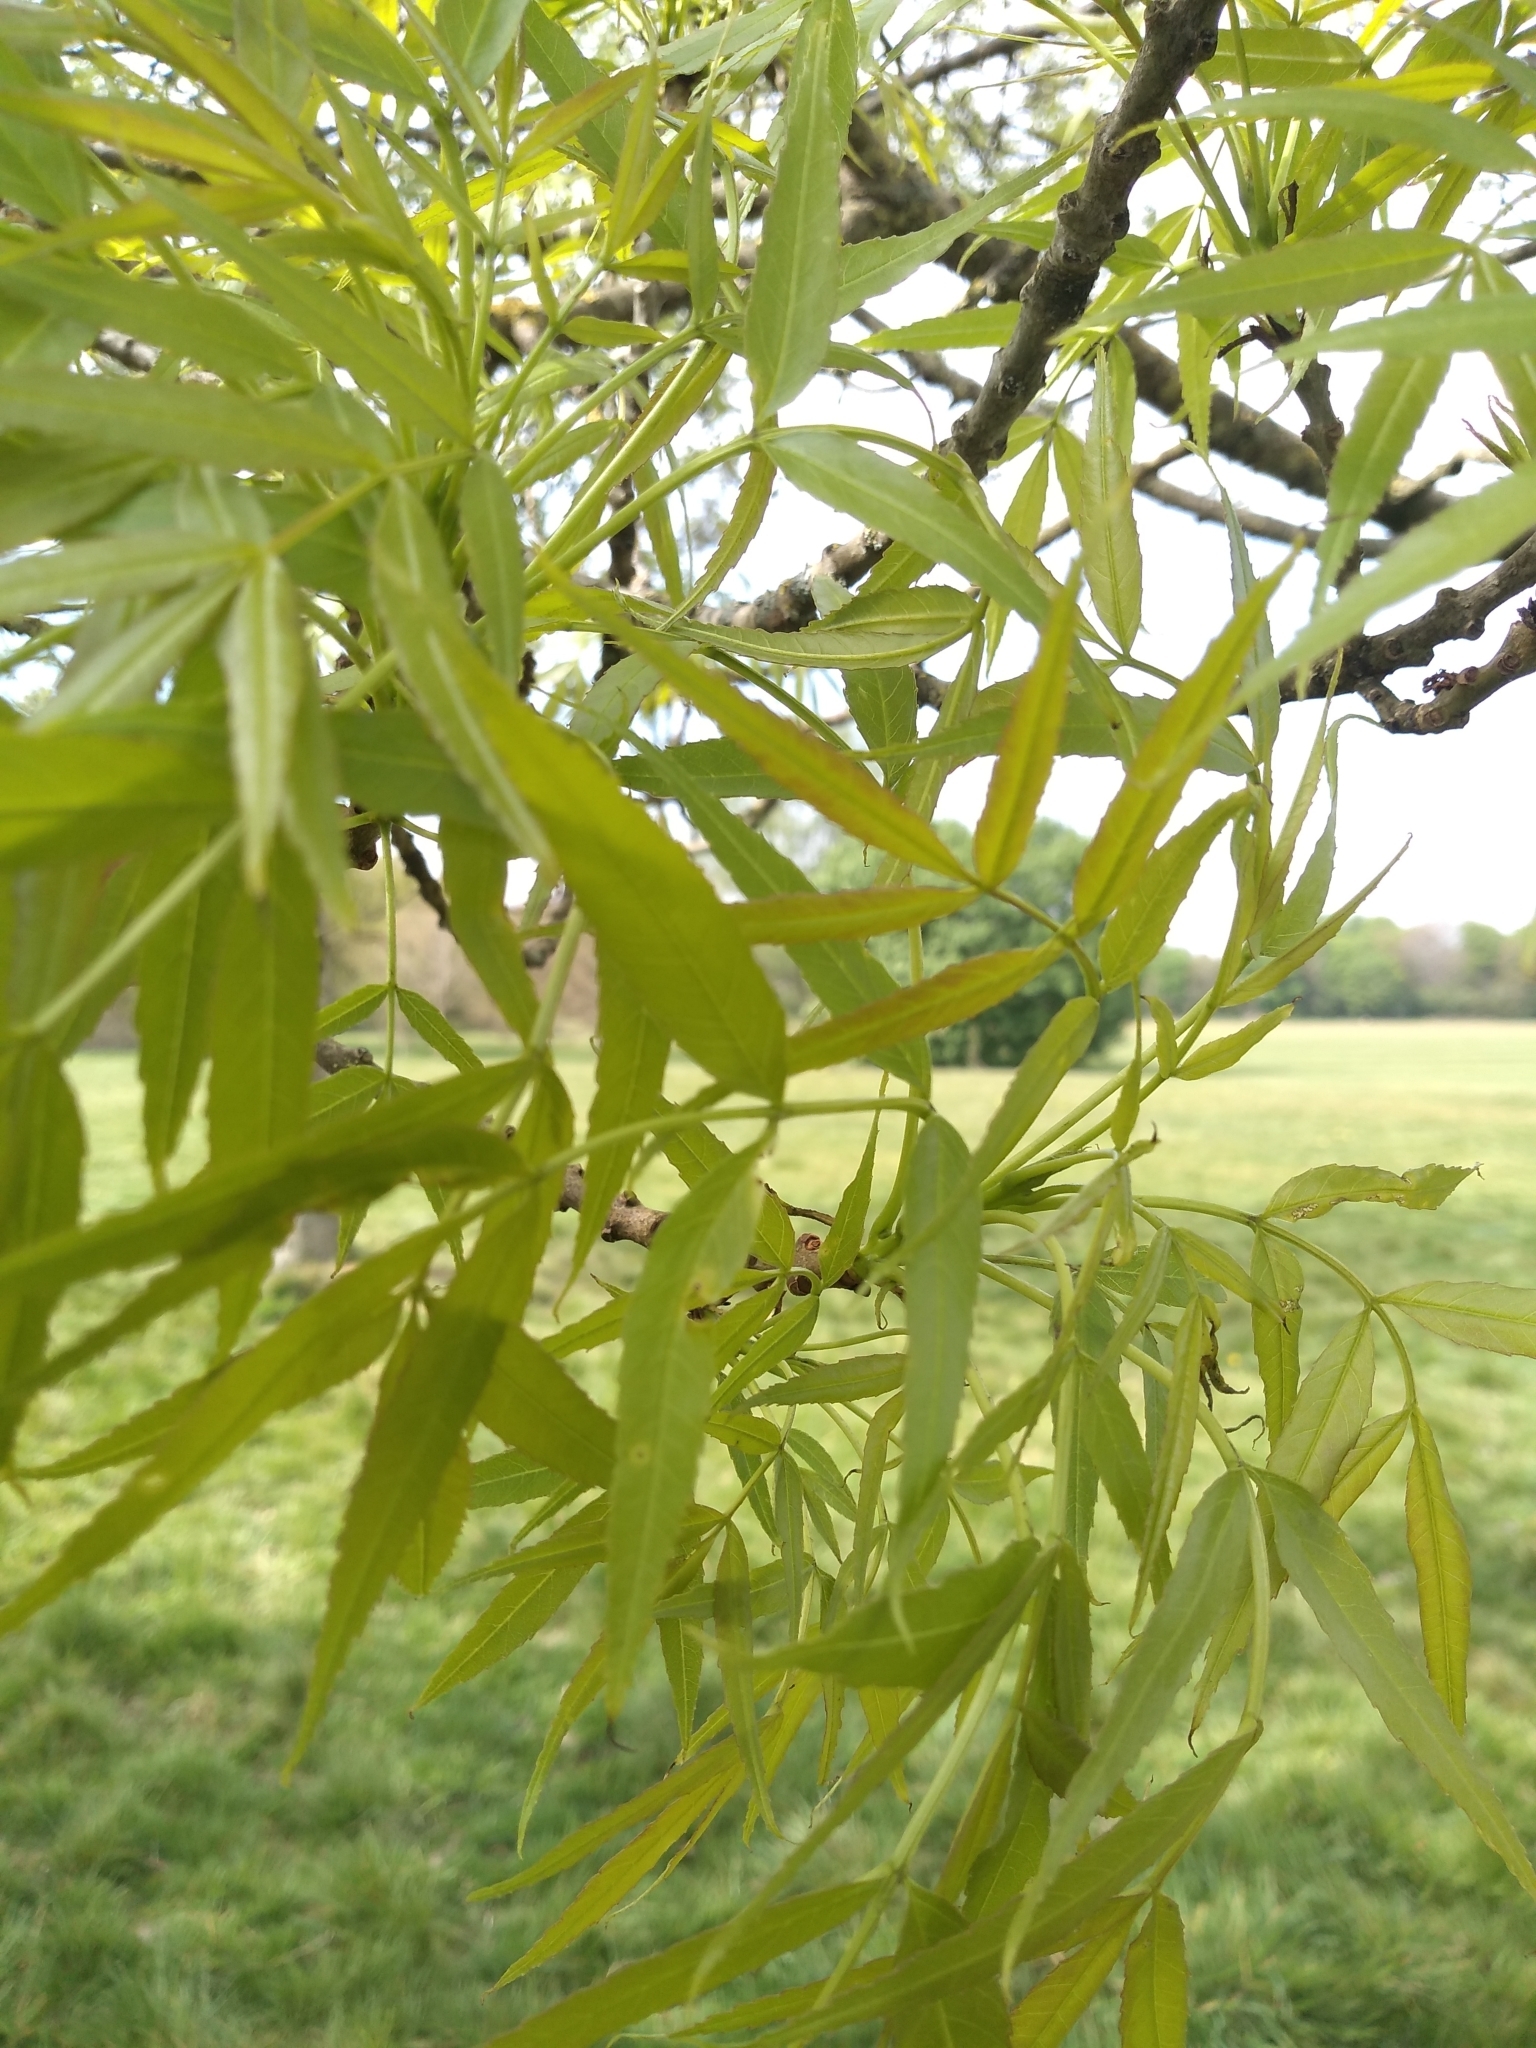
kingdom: Plantae
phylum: Tracheophyta
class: Magnoliopsida
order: Lamiales
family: Oleaceae
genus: Fraxinus
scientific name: Fraxinus angustifolia
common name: Narrow-leafed ash
